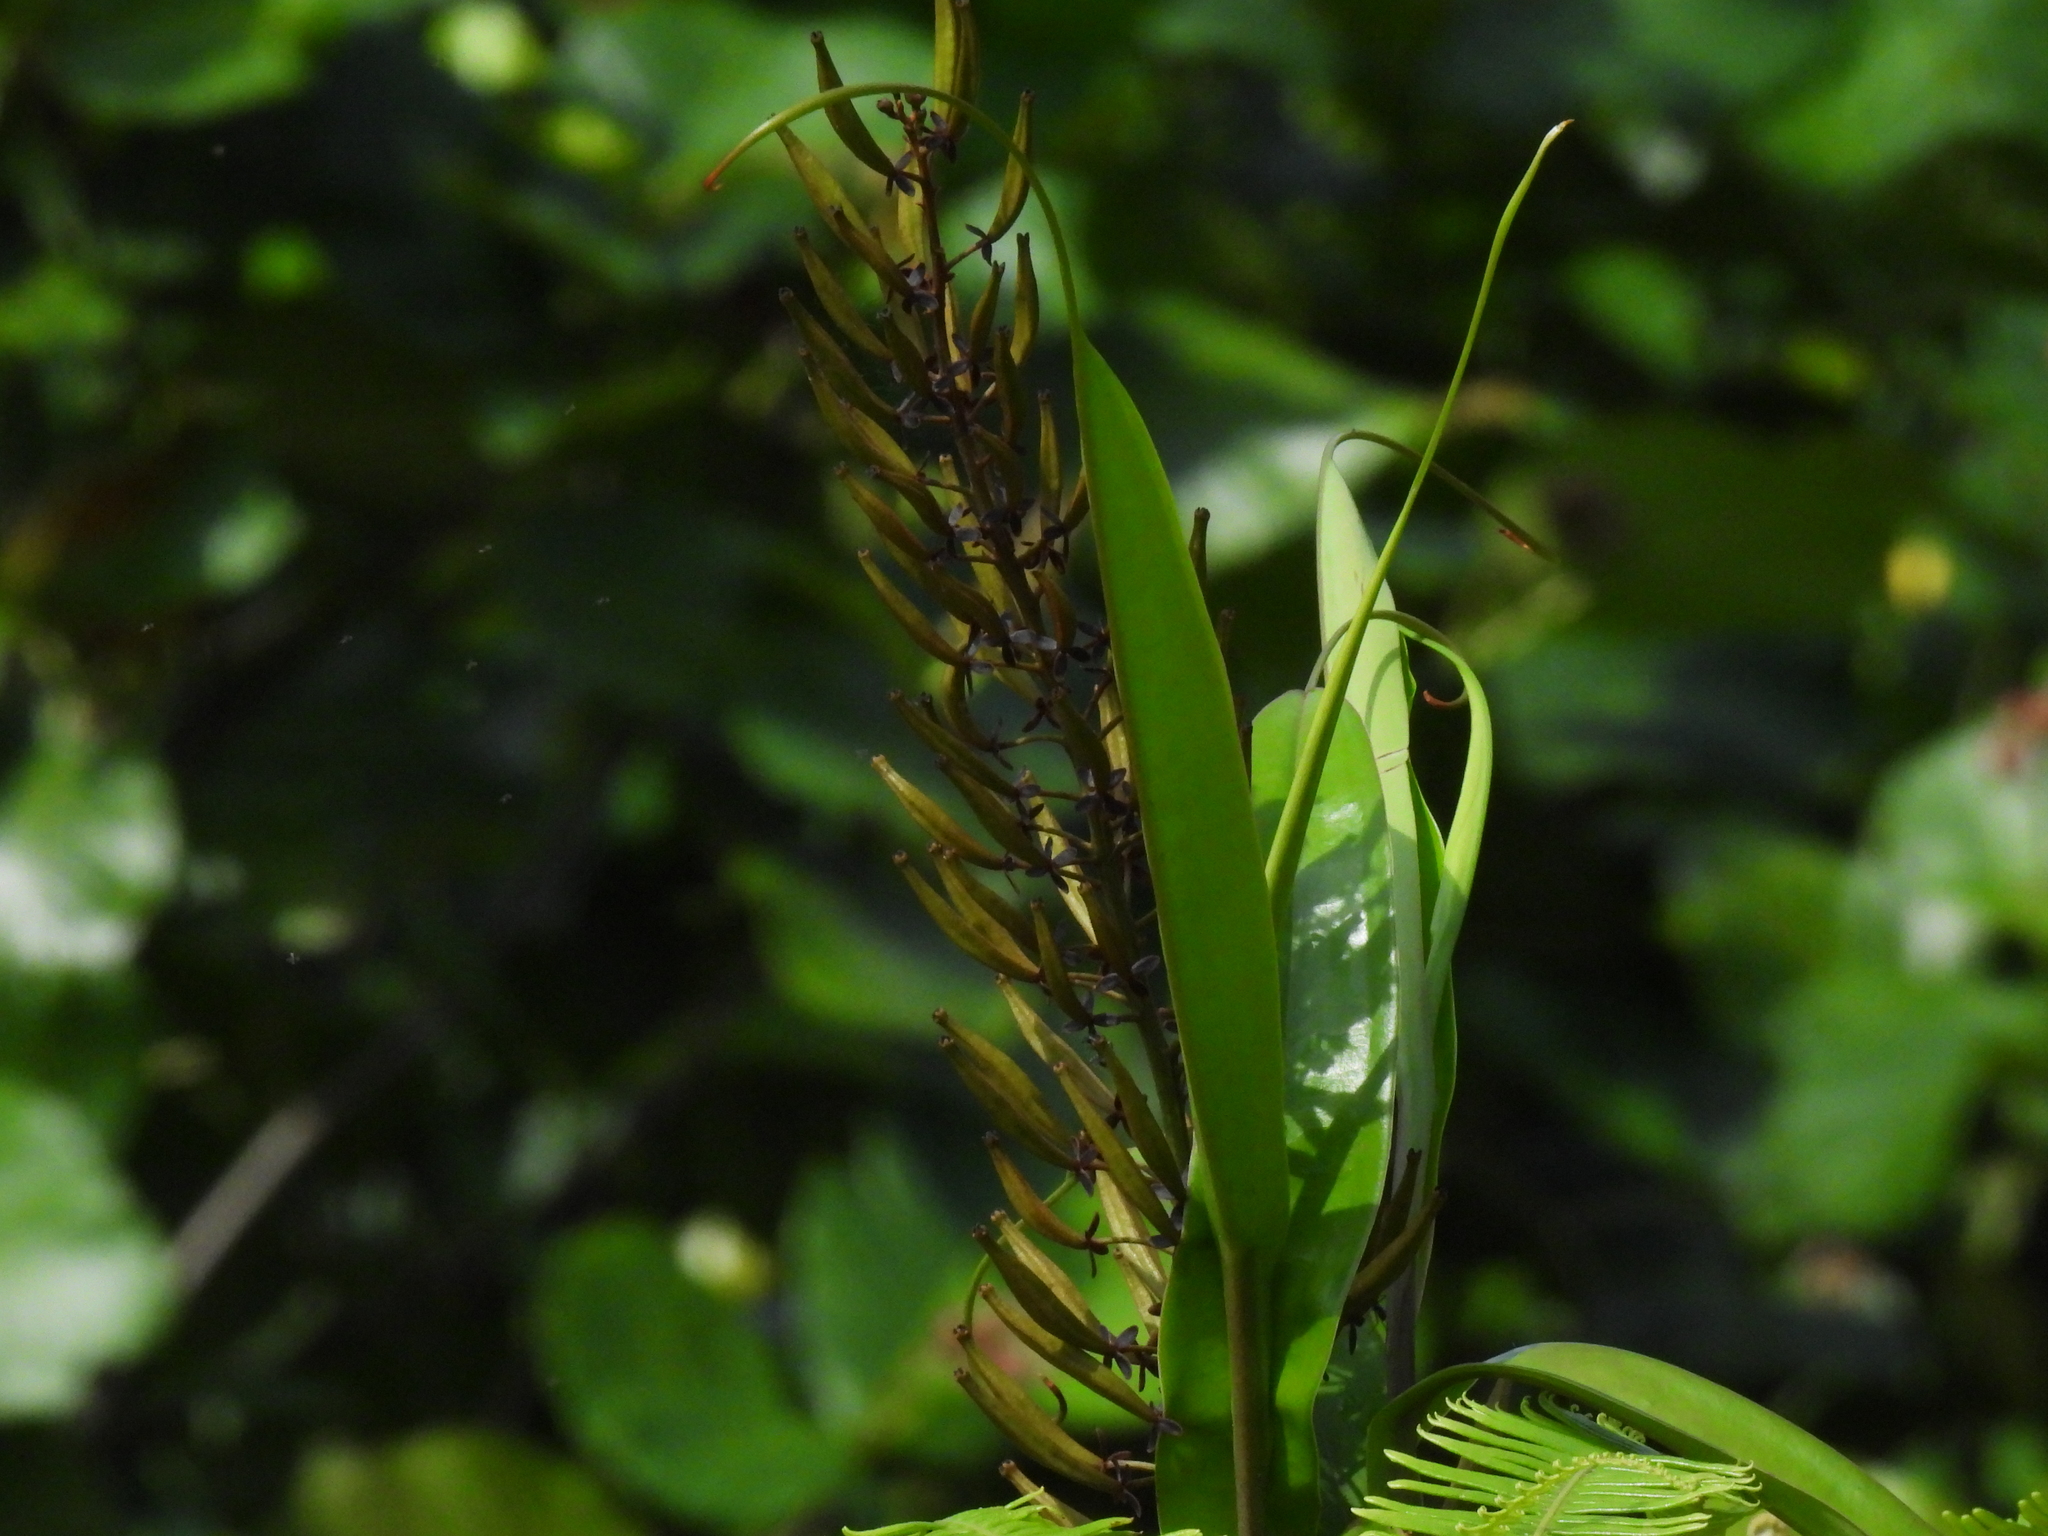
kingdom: Plantae
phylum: Tracheophyta
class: Magnoliopsida
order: Caryophyllales
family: Nepenthaceae
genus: Nepenthes
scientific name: Nepenthes gracilis
